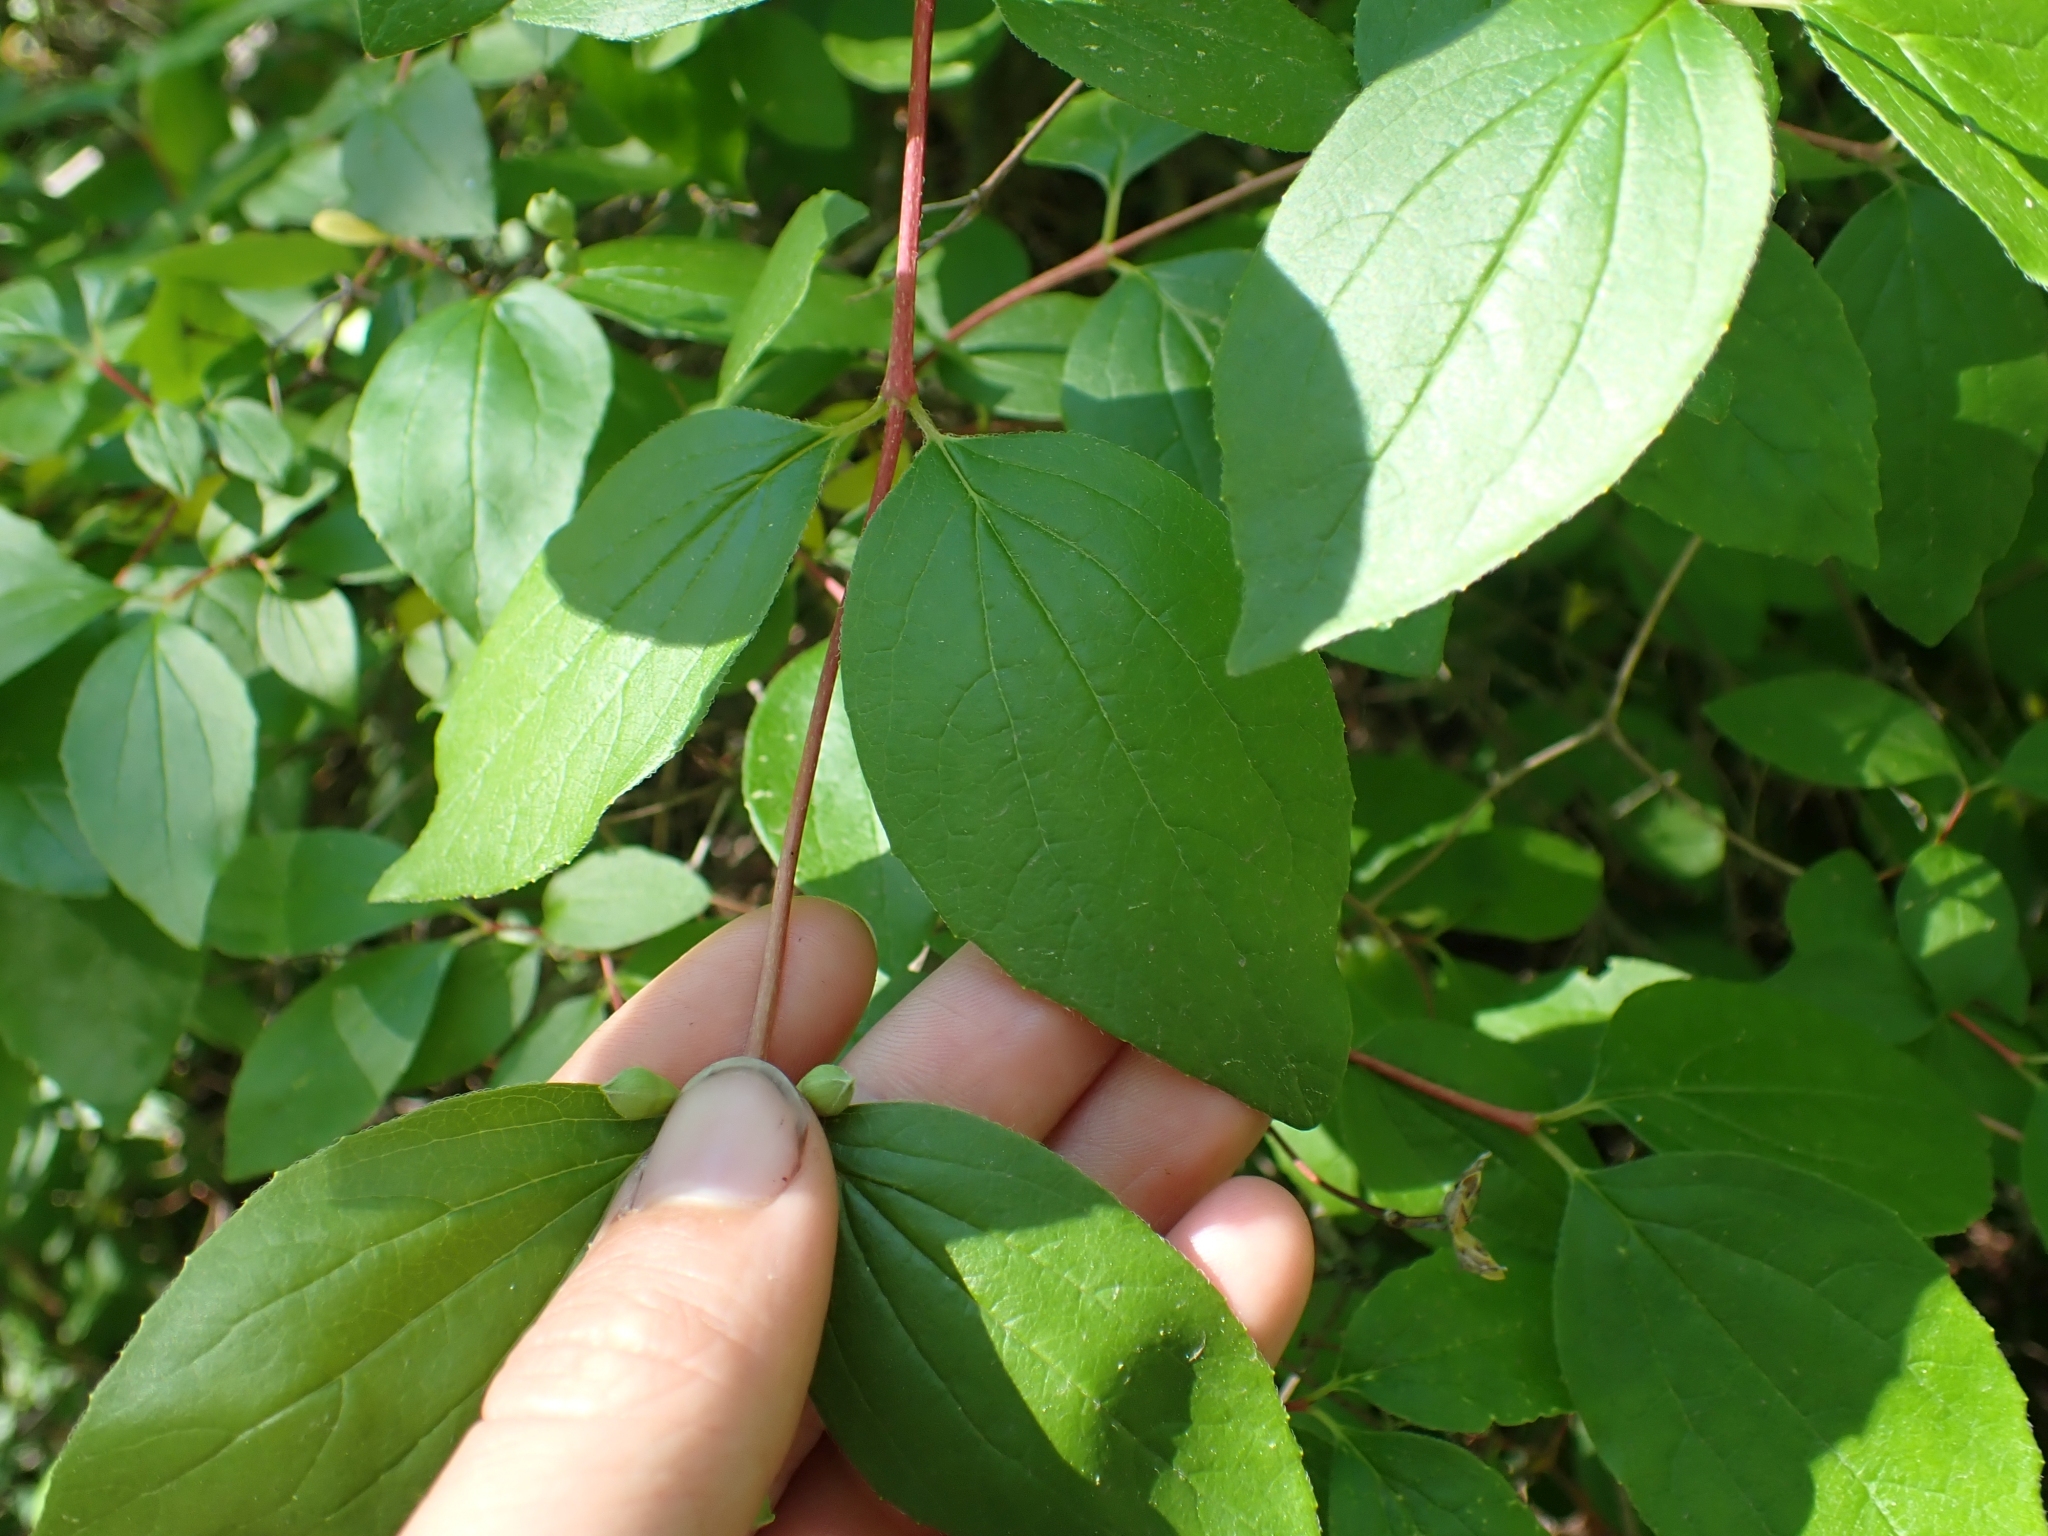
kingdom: Plantae
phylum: Tracheophyta
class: Magnoliopsida
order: Cornales
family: Hydrangeaceae
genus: Philadelphus
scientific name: Philadelphus lewisii
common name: Lewis's mock orange
